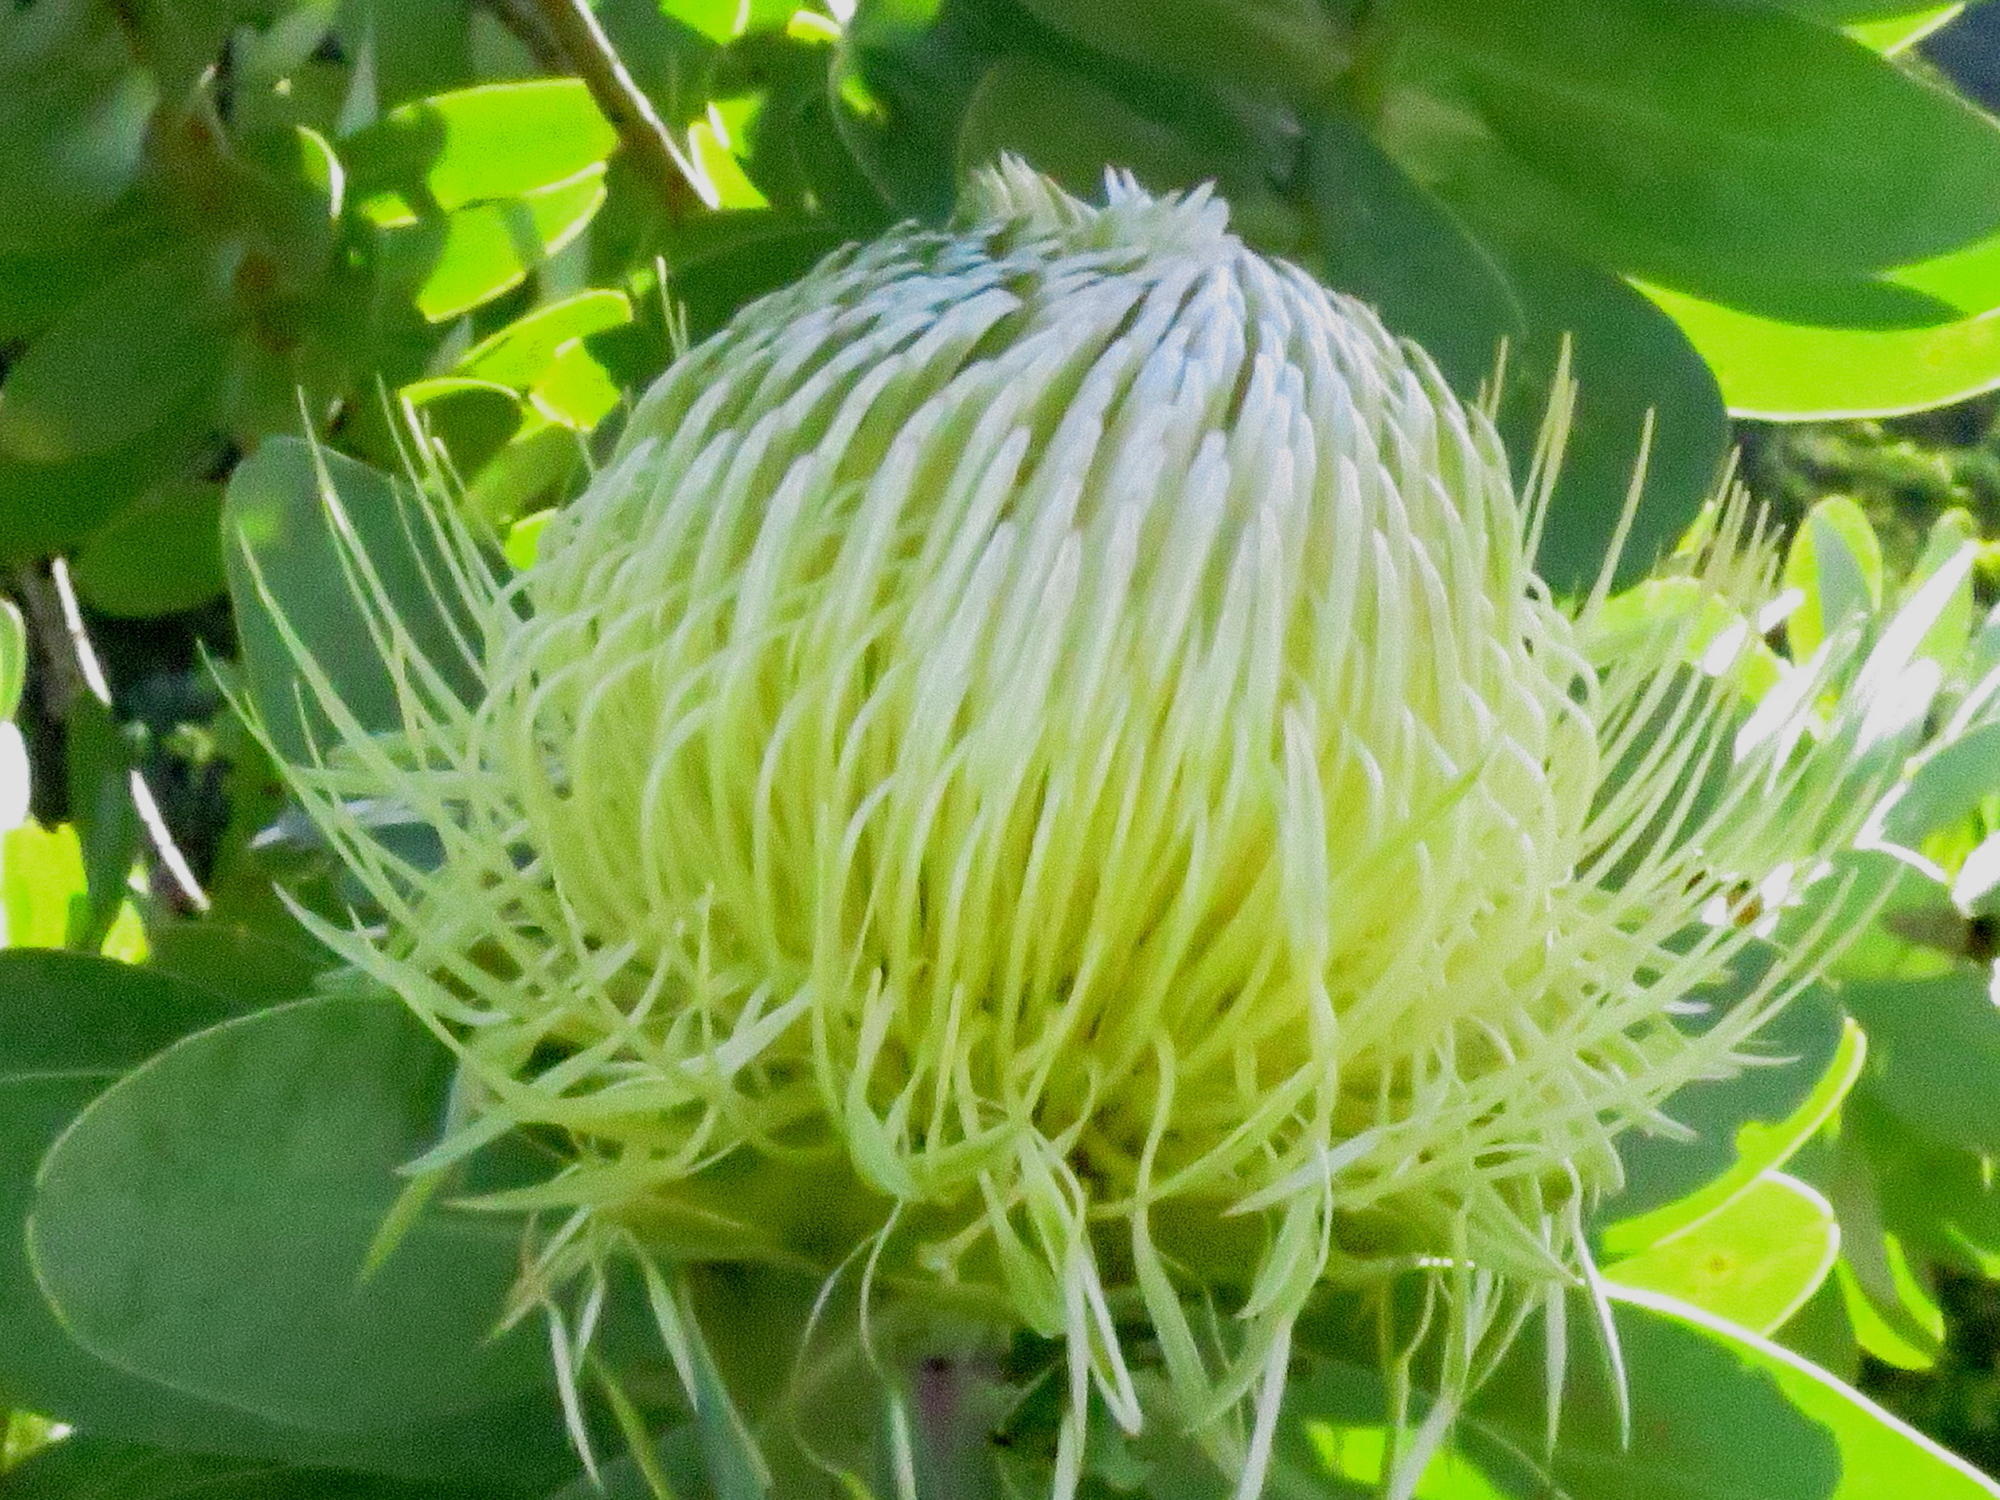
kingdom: Plantae
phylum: Tracheophyta
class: Magnoliopsida
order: Proteales
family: Proteaceae
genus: Protea
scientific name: Protea nitida
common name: Tree protea
